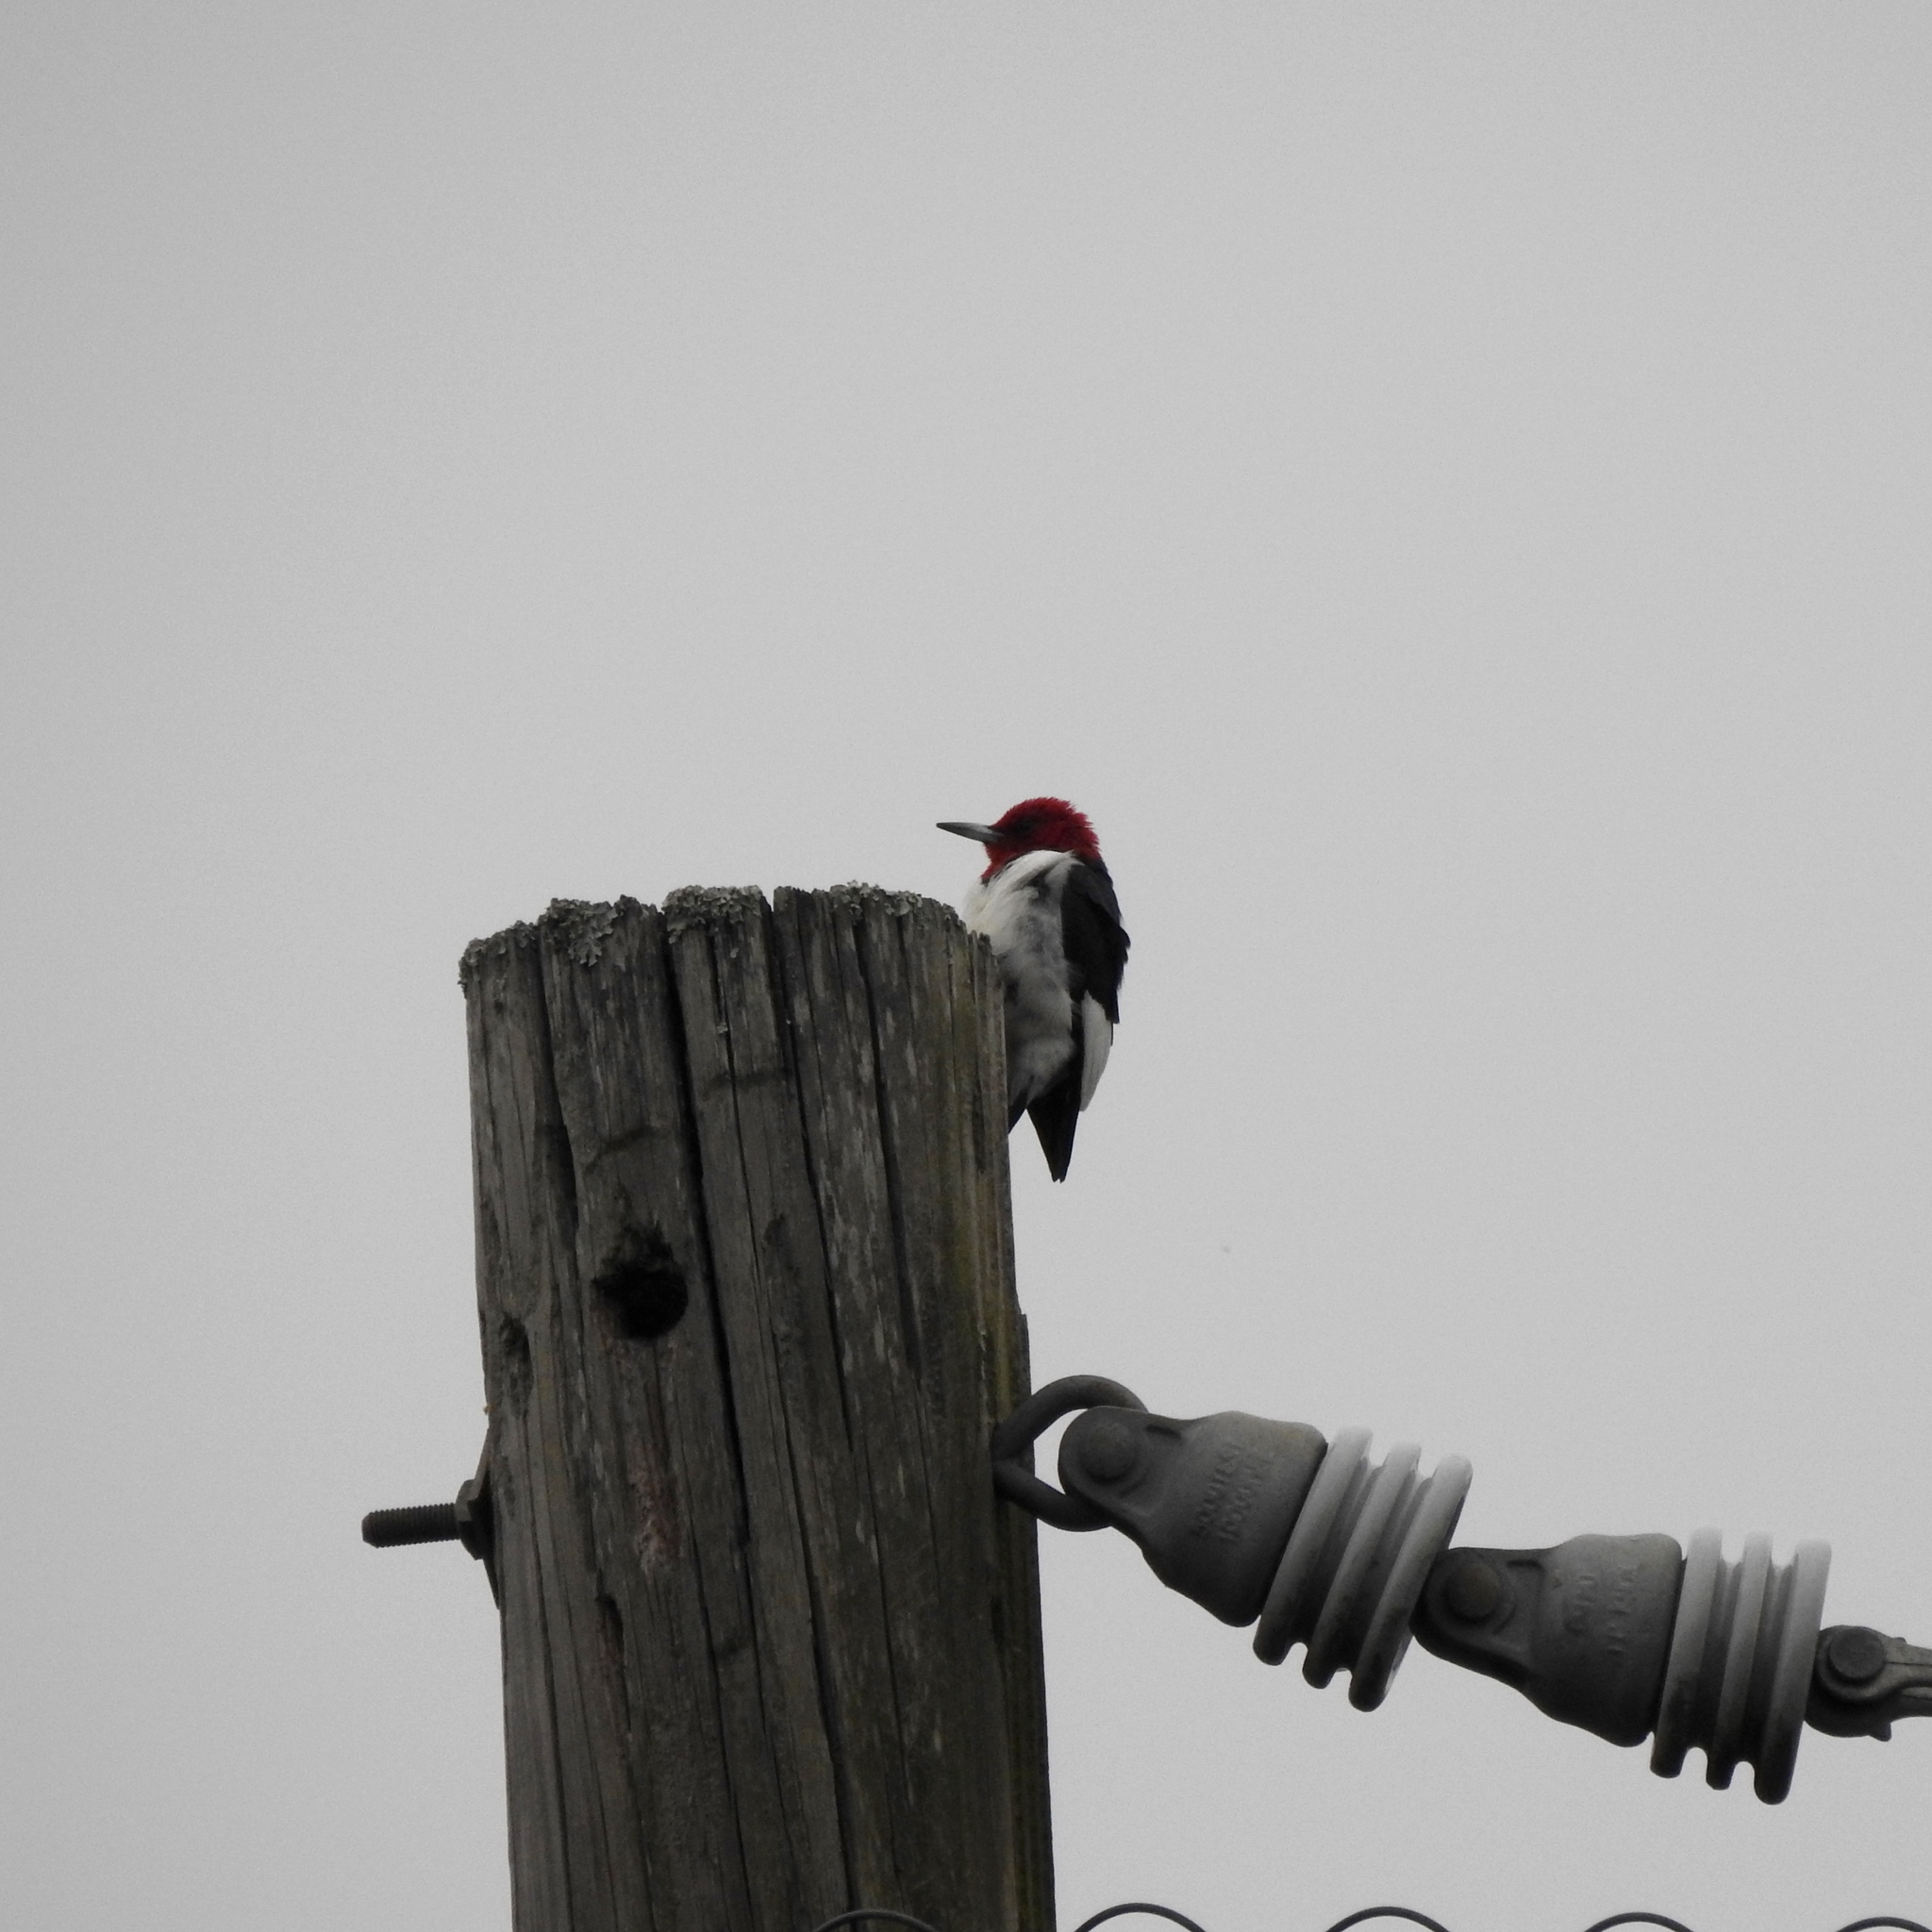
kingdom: Animalia
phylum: Chordata
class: Aves
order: Piciformes
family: Picidae
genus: Melanerpes
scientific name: Melanerpes erythrocephalus
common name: Red-headed woodpecker
